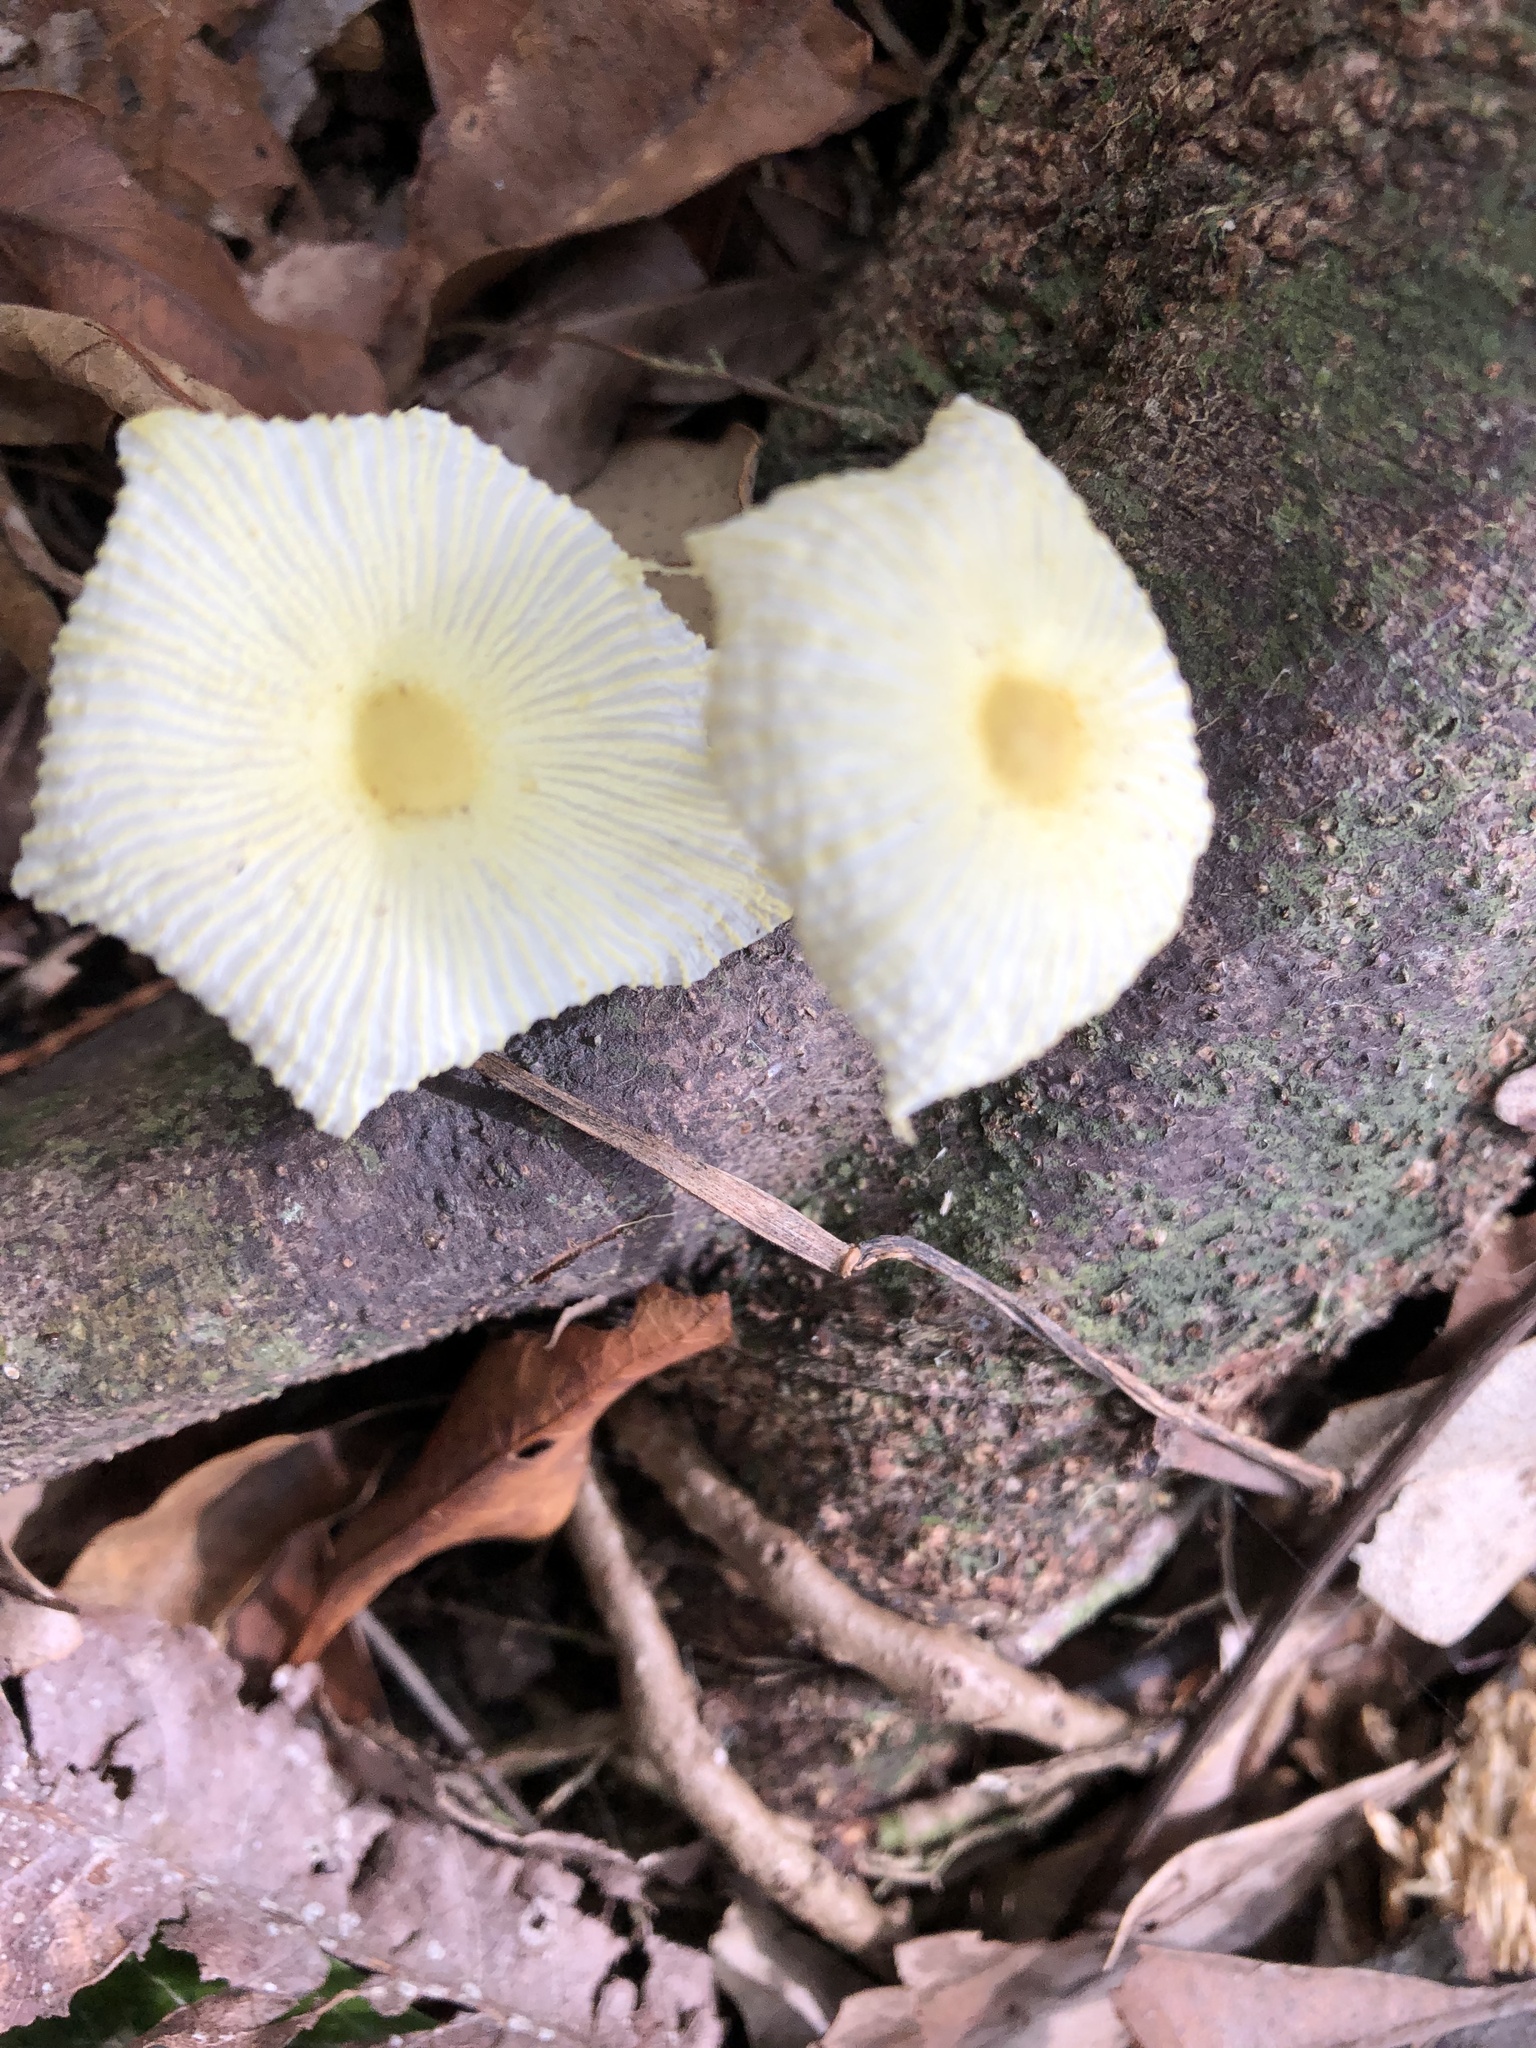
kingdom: Fungi
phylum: Basidiomycota
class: Agaricomycetes
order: Agaricales
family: Agaricaceae
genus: Leucocoprinus
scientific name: Leucocoprinus fragilissimus
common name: Fragile dapperling
